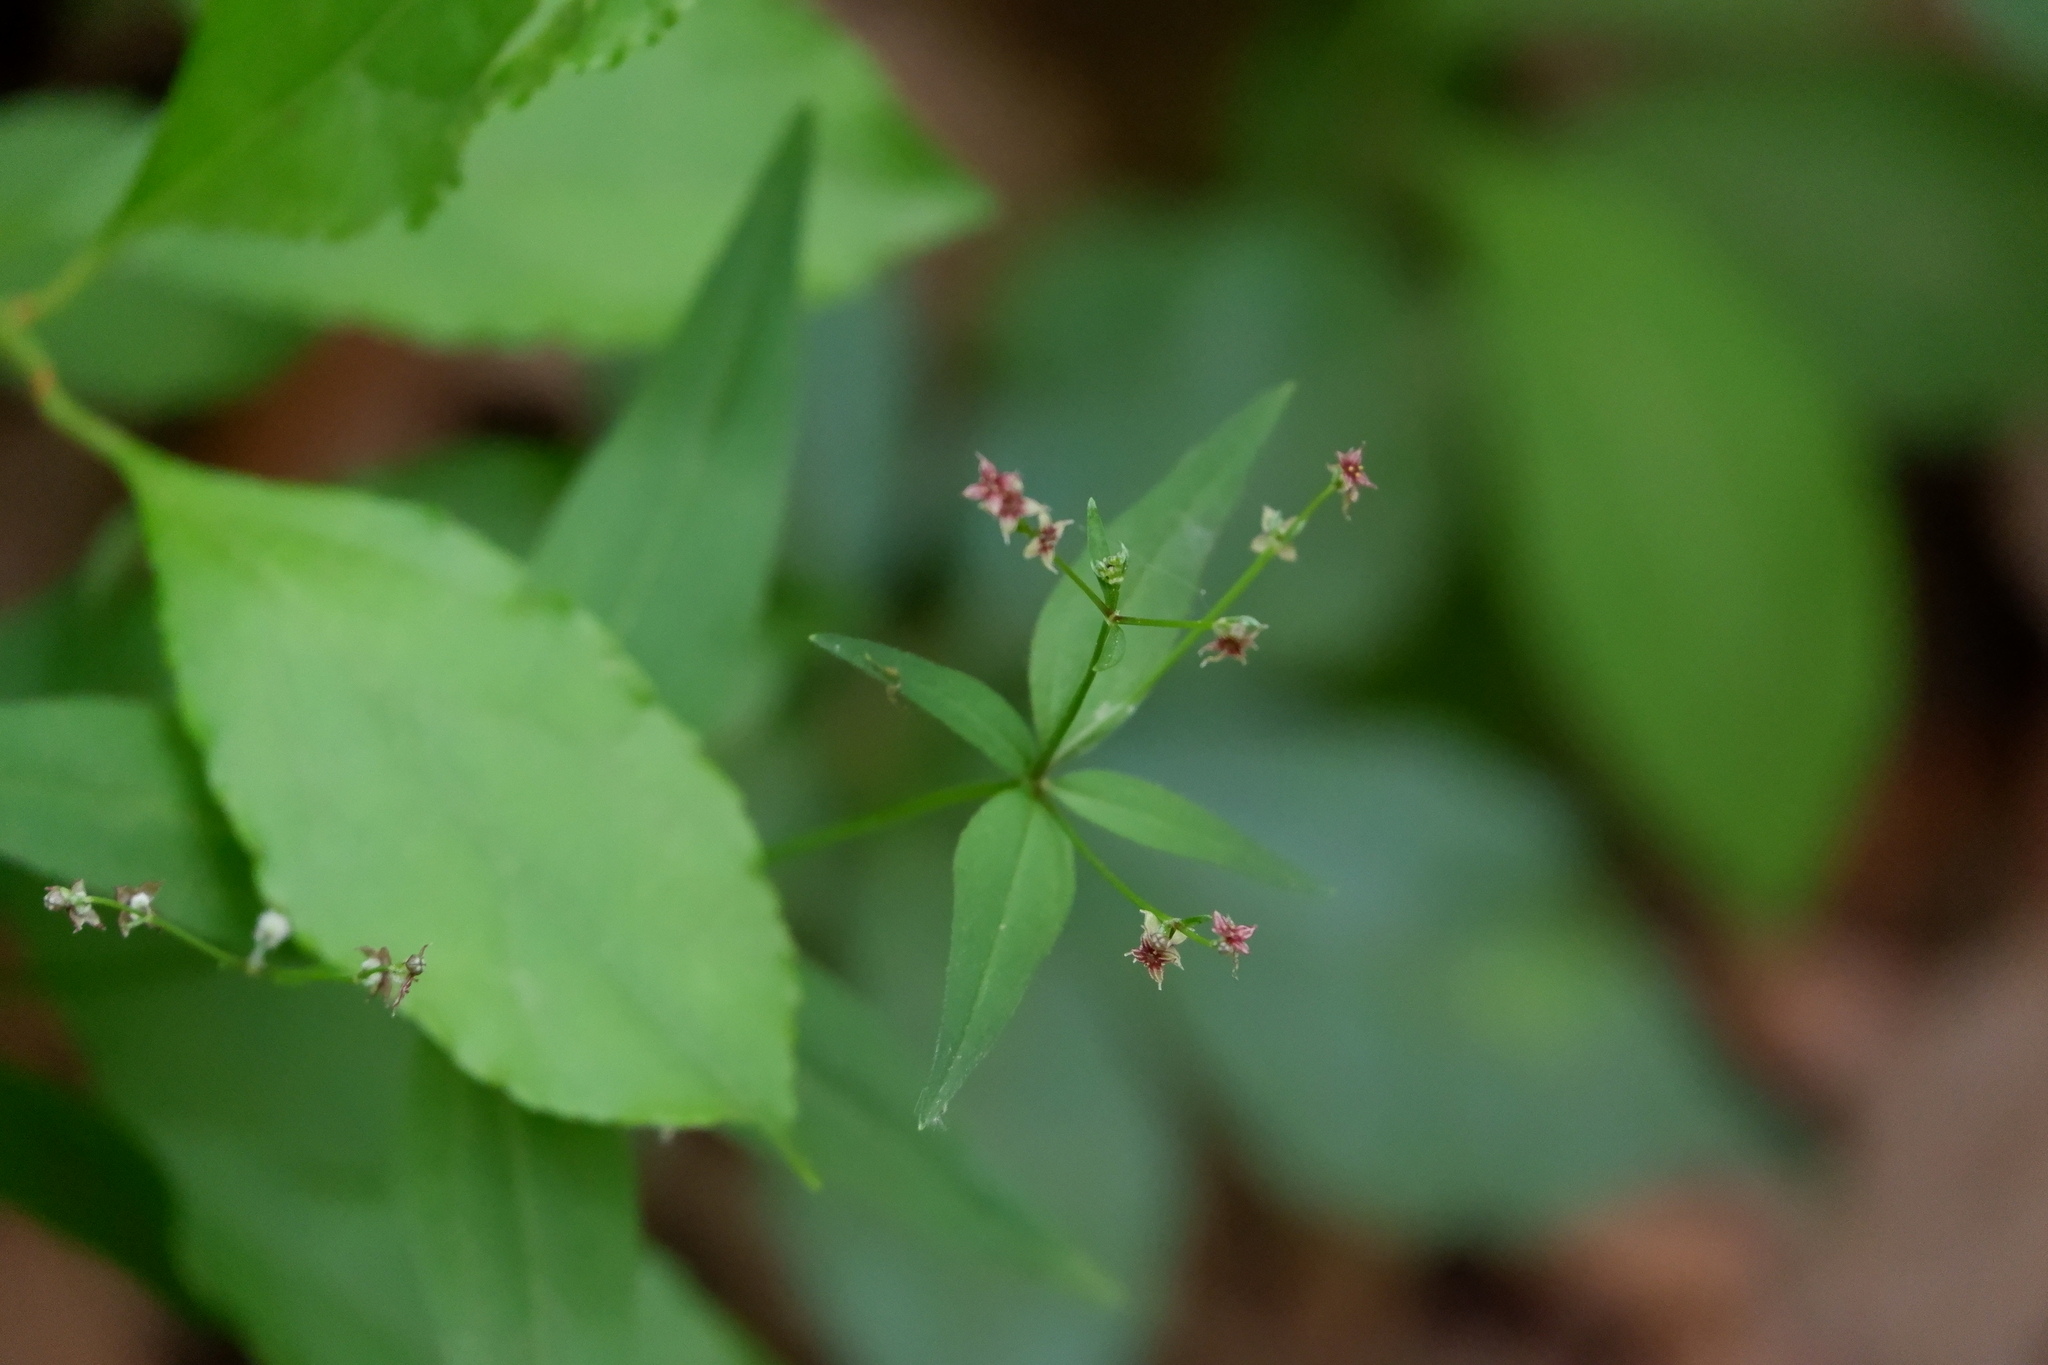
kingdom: Plantae
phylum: Tracheophyta
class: Magnoliopsida
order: Gentianales
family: Rubiaceae
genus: Galium
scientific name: Galium lanceolatum
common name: Lance-leaved wild licorice
